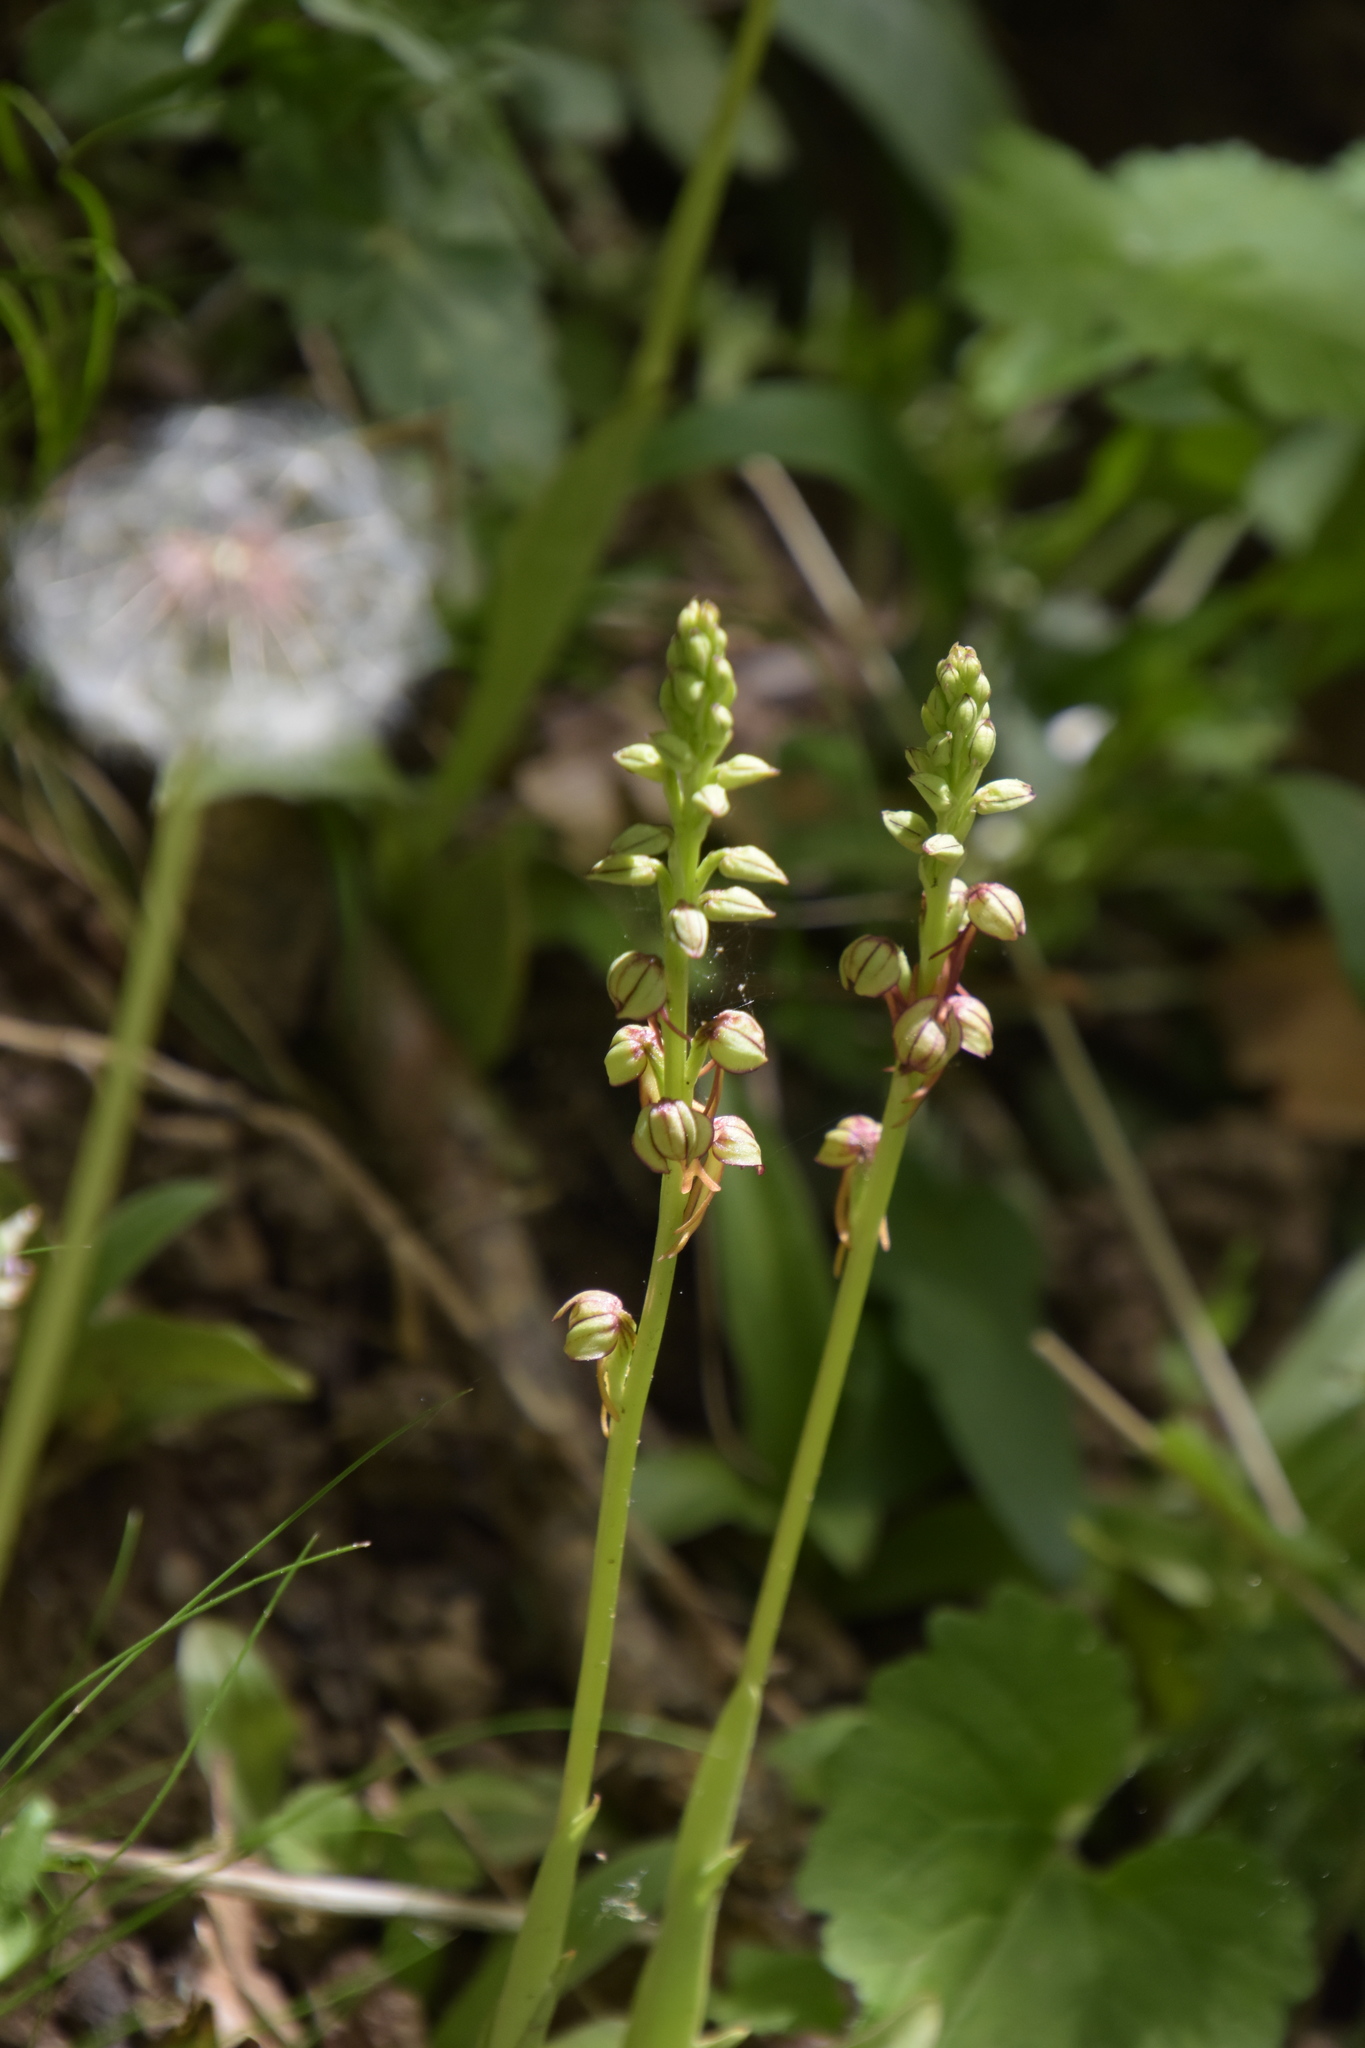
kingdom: Plantae
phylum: Tracheophyta
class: Liliopsida
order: Asparagales
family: Orchidaceae
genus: Orchis
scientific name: Orchis anthropophora
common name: Man orchid
